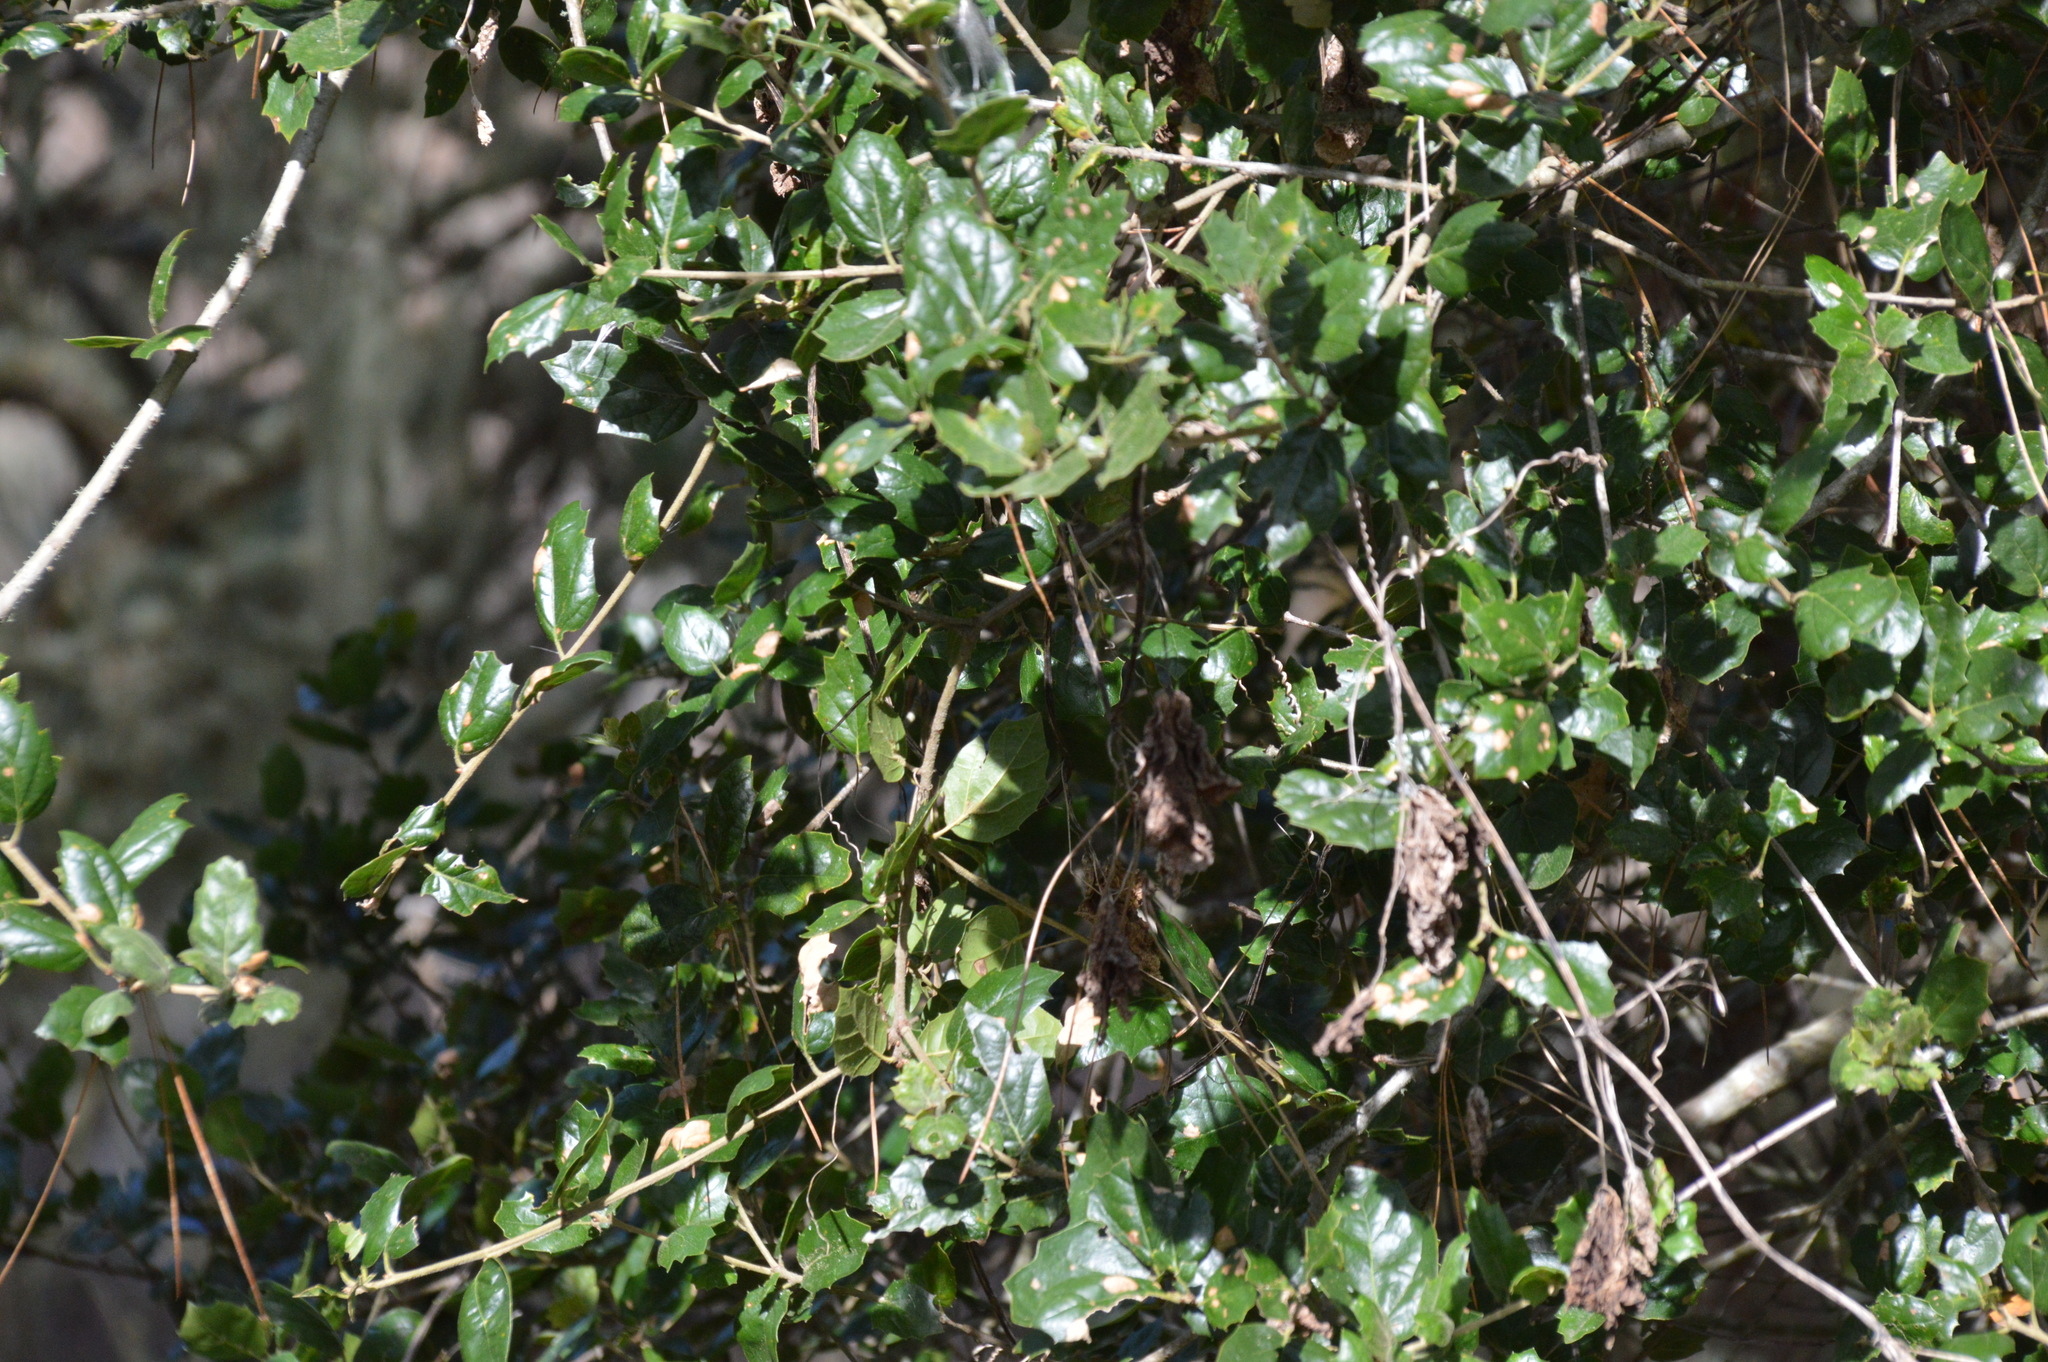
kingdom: Plantae
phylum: Tracheophyta
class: Magnoliopsida
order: Fagales
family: Fagaceae
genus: Quercus
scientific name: Quercus agrifolia
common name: California live oak
